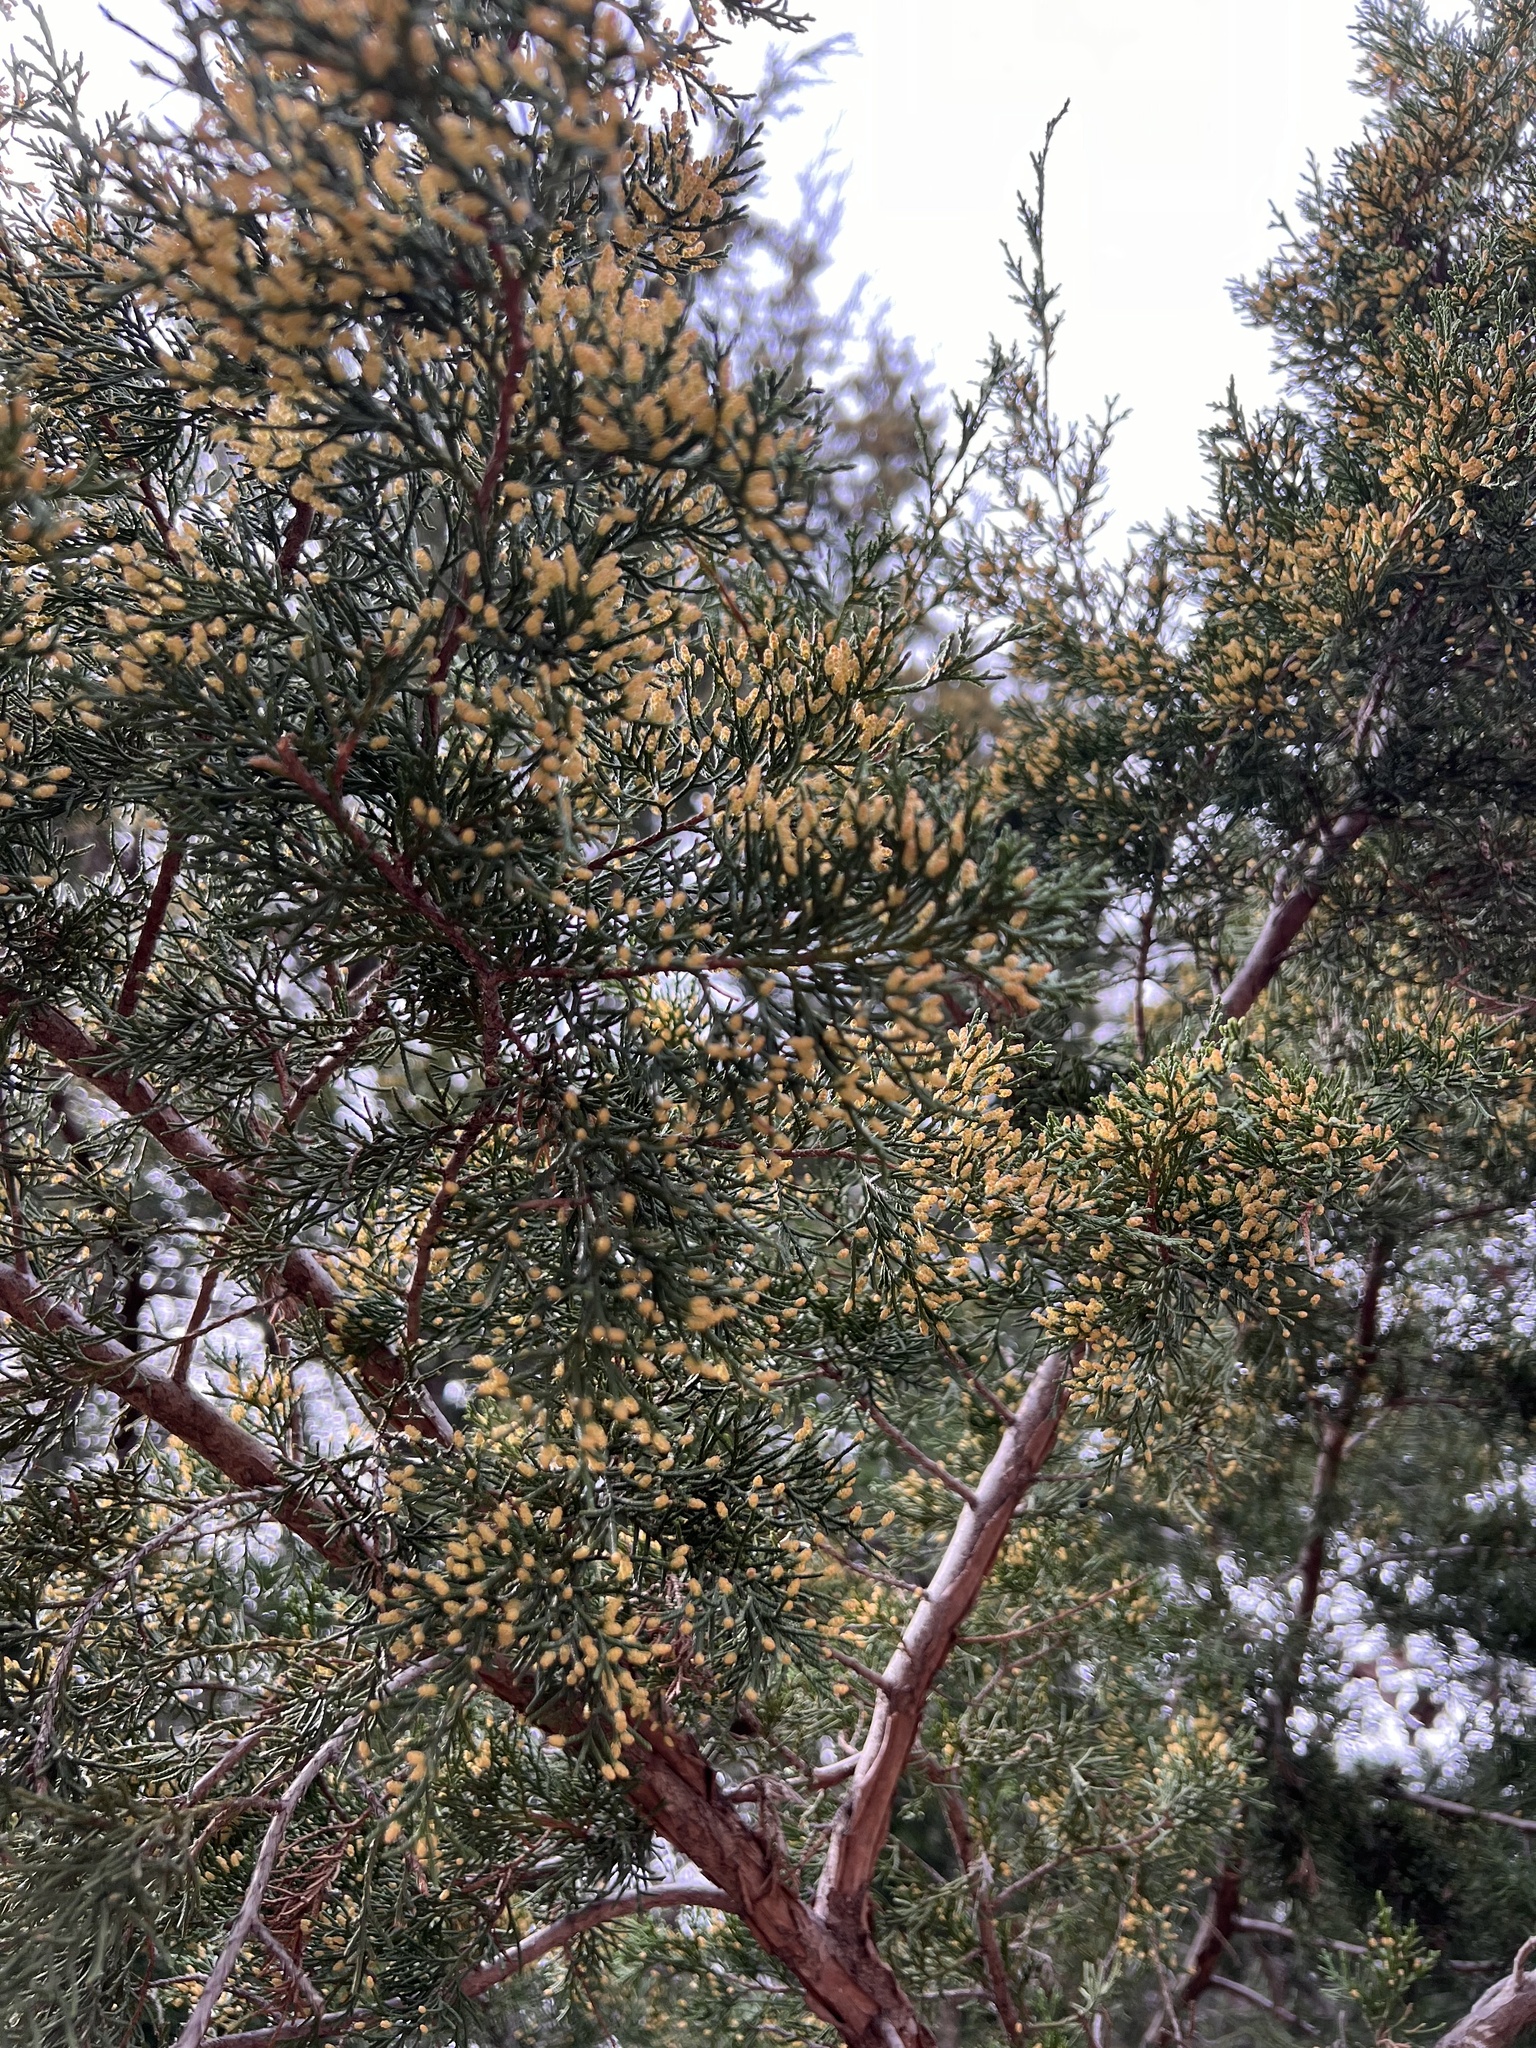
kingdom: Plantae
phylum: Tracheophyta
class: Pinopsida
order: Pinales
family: Cupressaceae
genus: Juniperus
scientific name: Juniperus virginiana
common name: Red juniper
